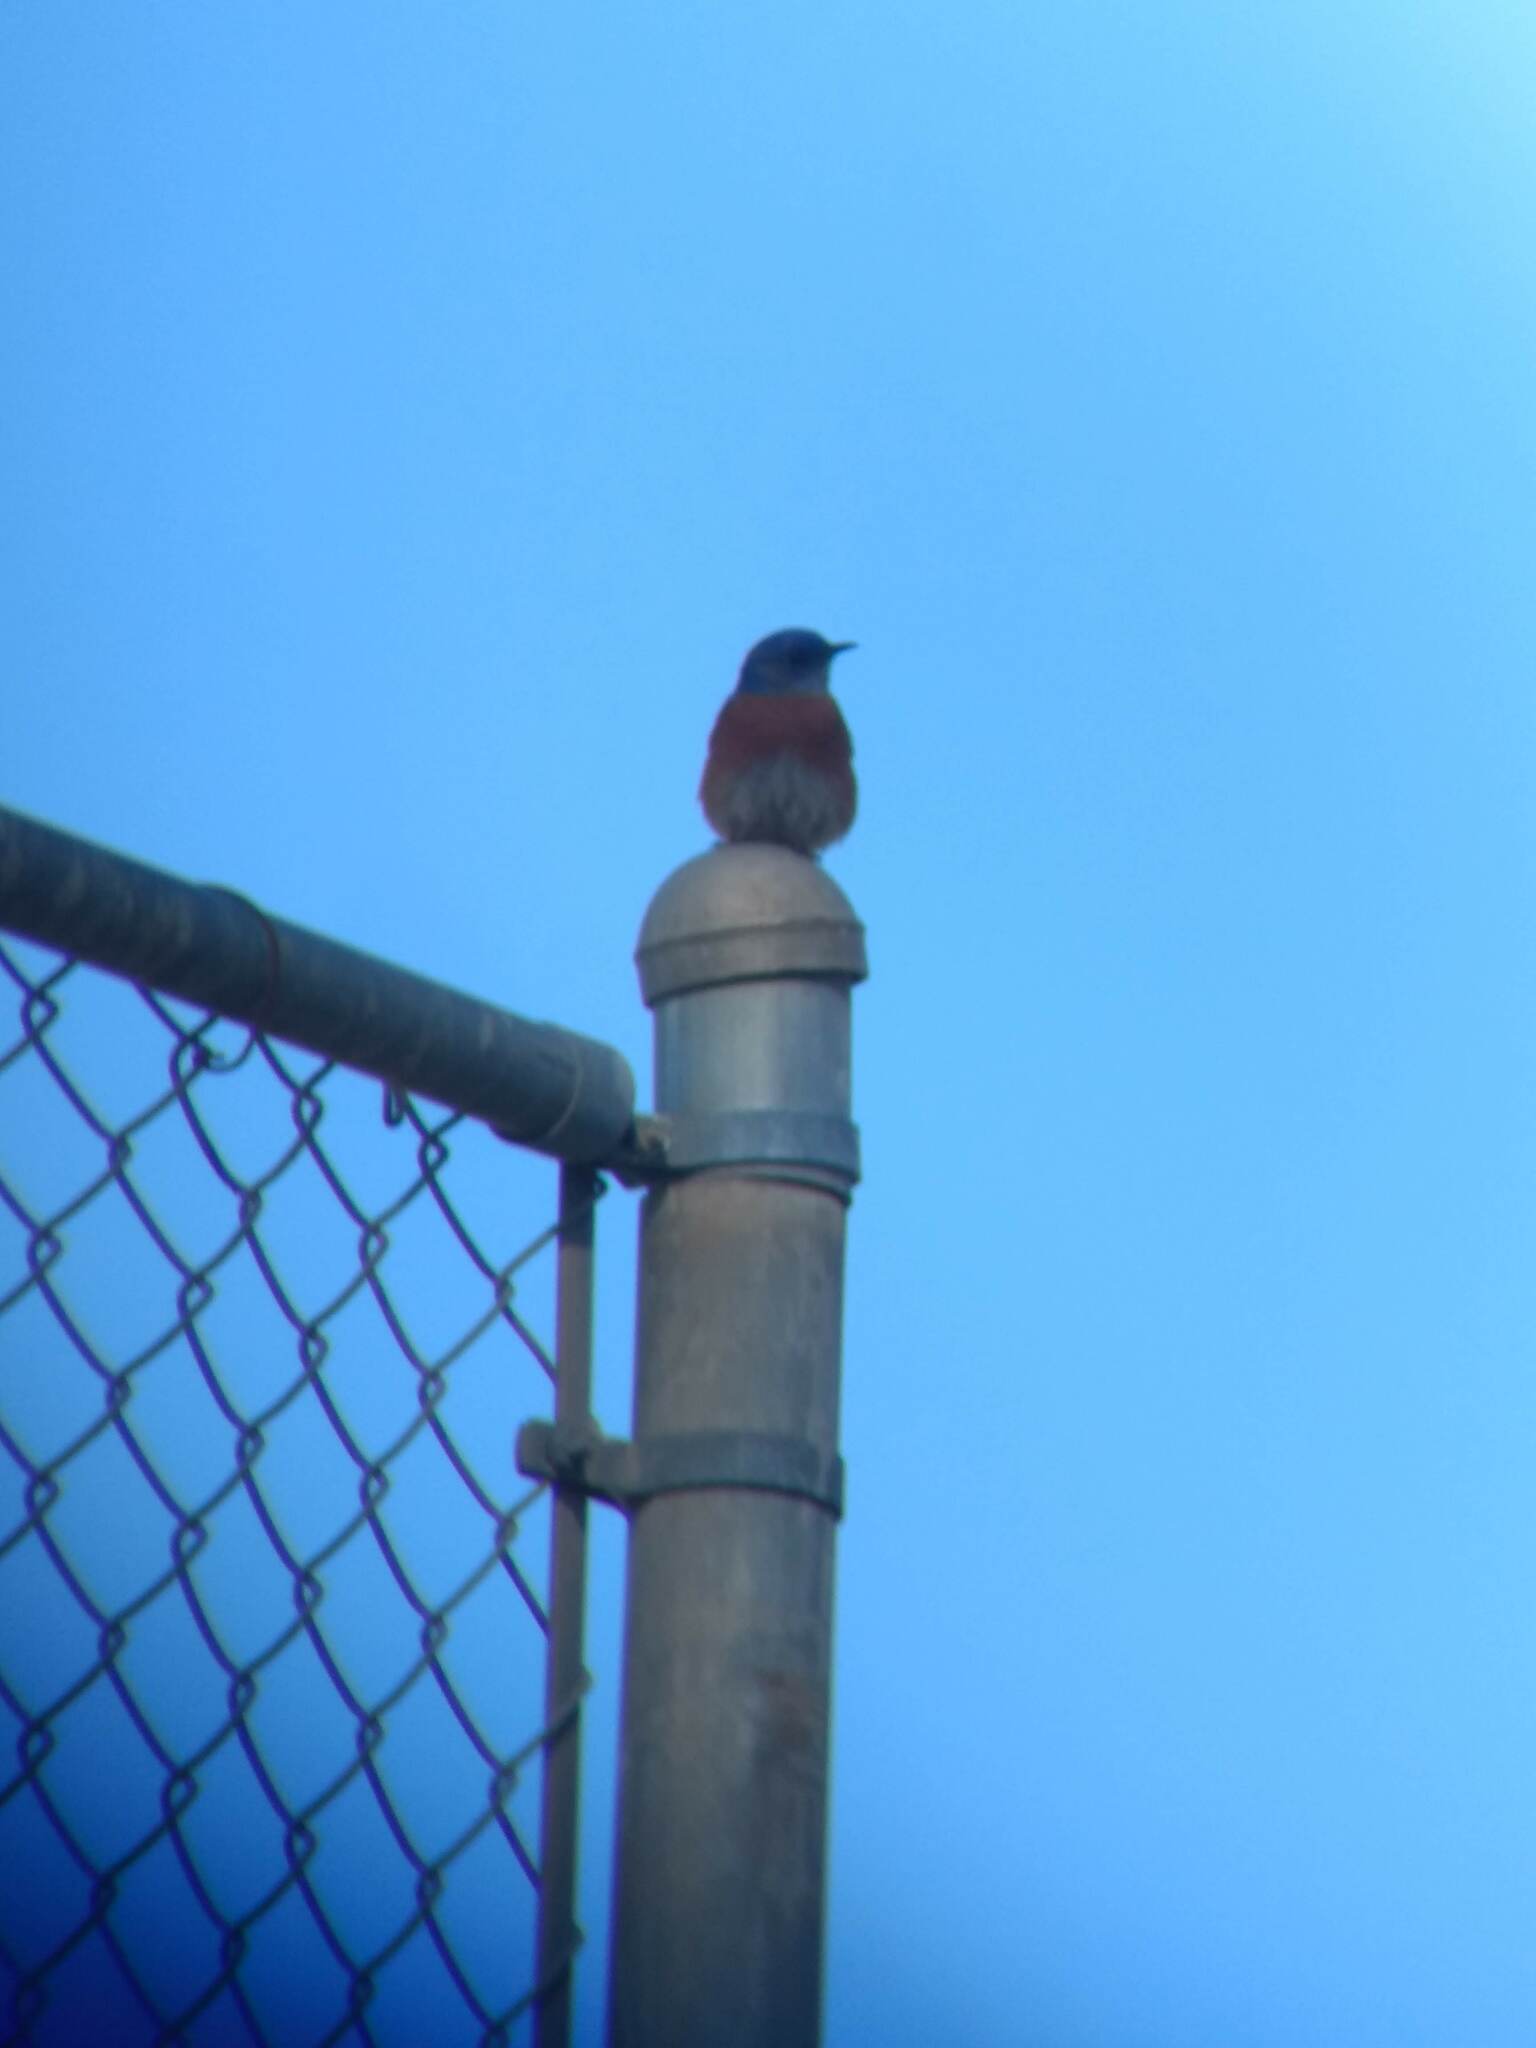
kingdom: Animalia
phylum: Chordata
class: Aves
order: Passeriformes
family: Turdidae
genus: Sialia
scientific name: Sialia mexicana
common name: Western bluebird
